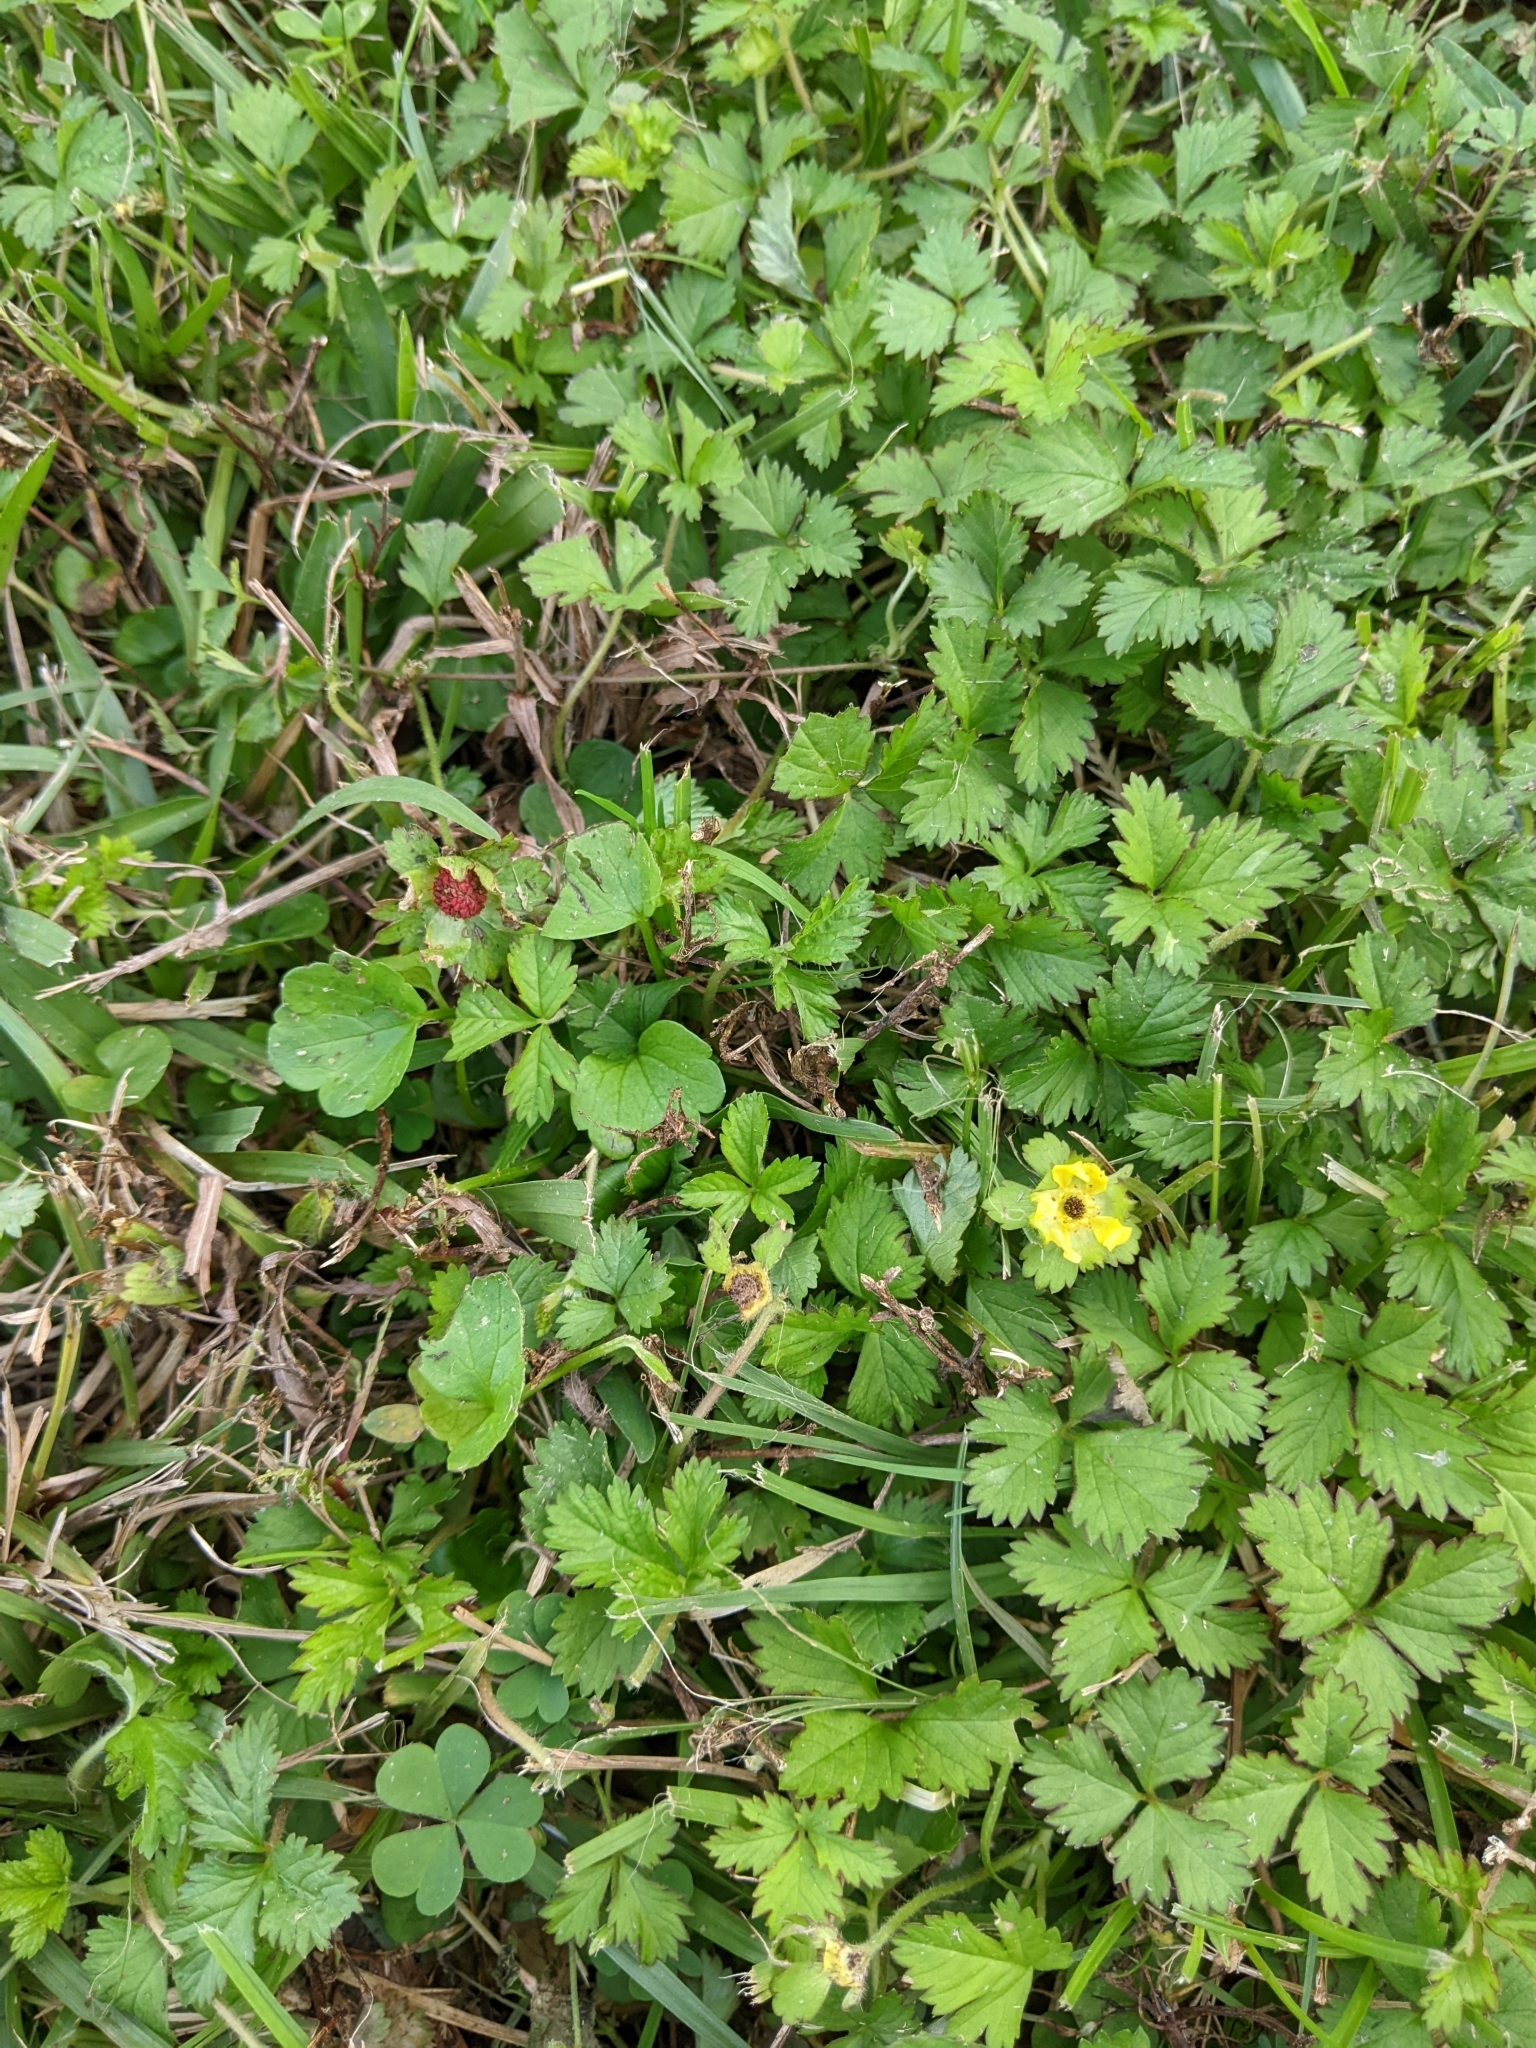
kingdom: Plantae
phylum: Tracheophyta
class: Magnoliopsida
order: Rosales
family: Rosaceae
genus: Potentilla
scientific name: Potentilla indica
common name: Yellow-flowered strawberry
